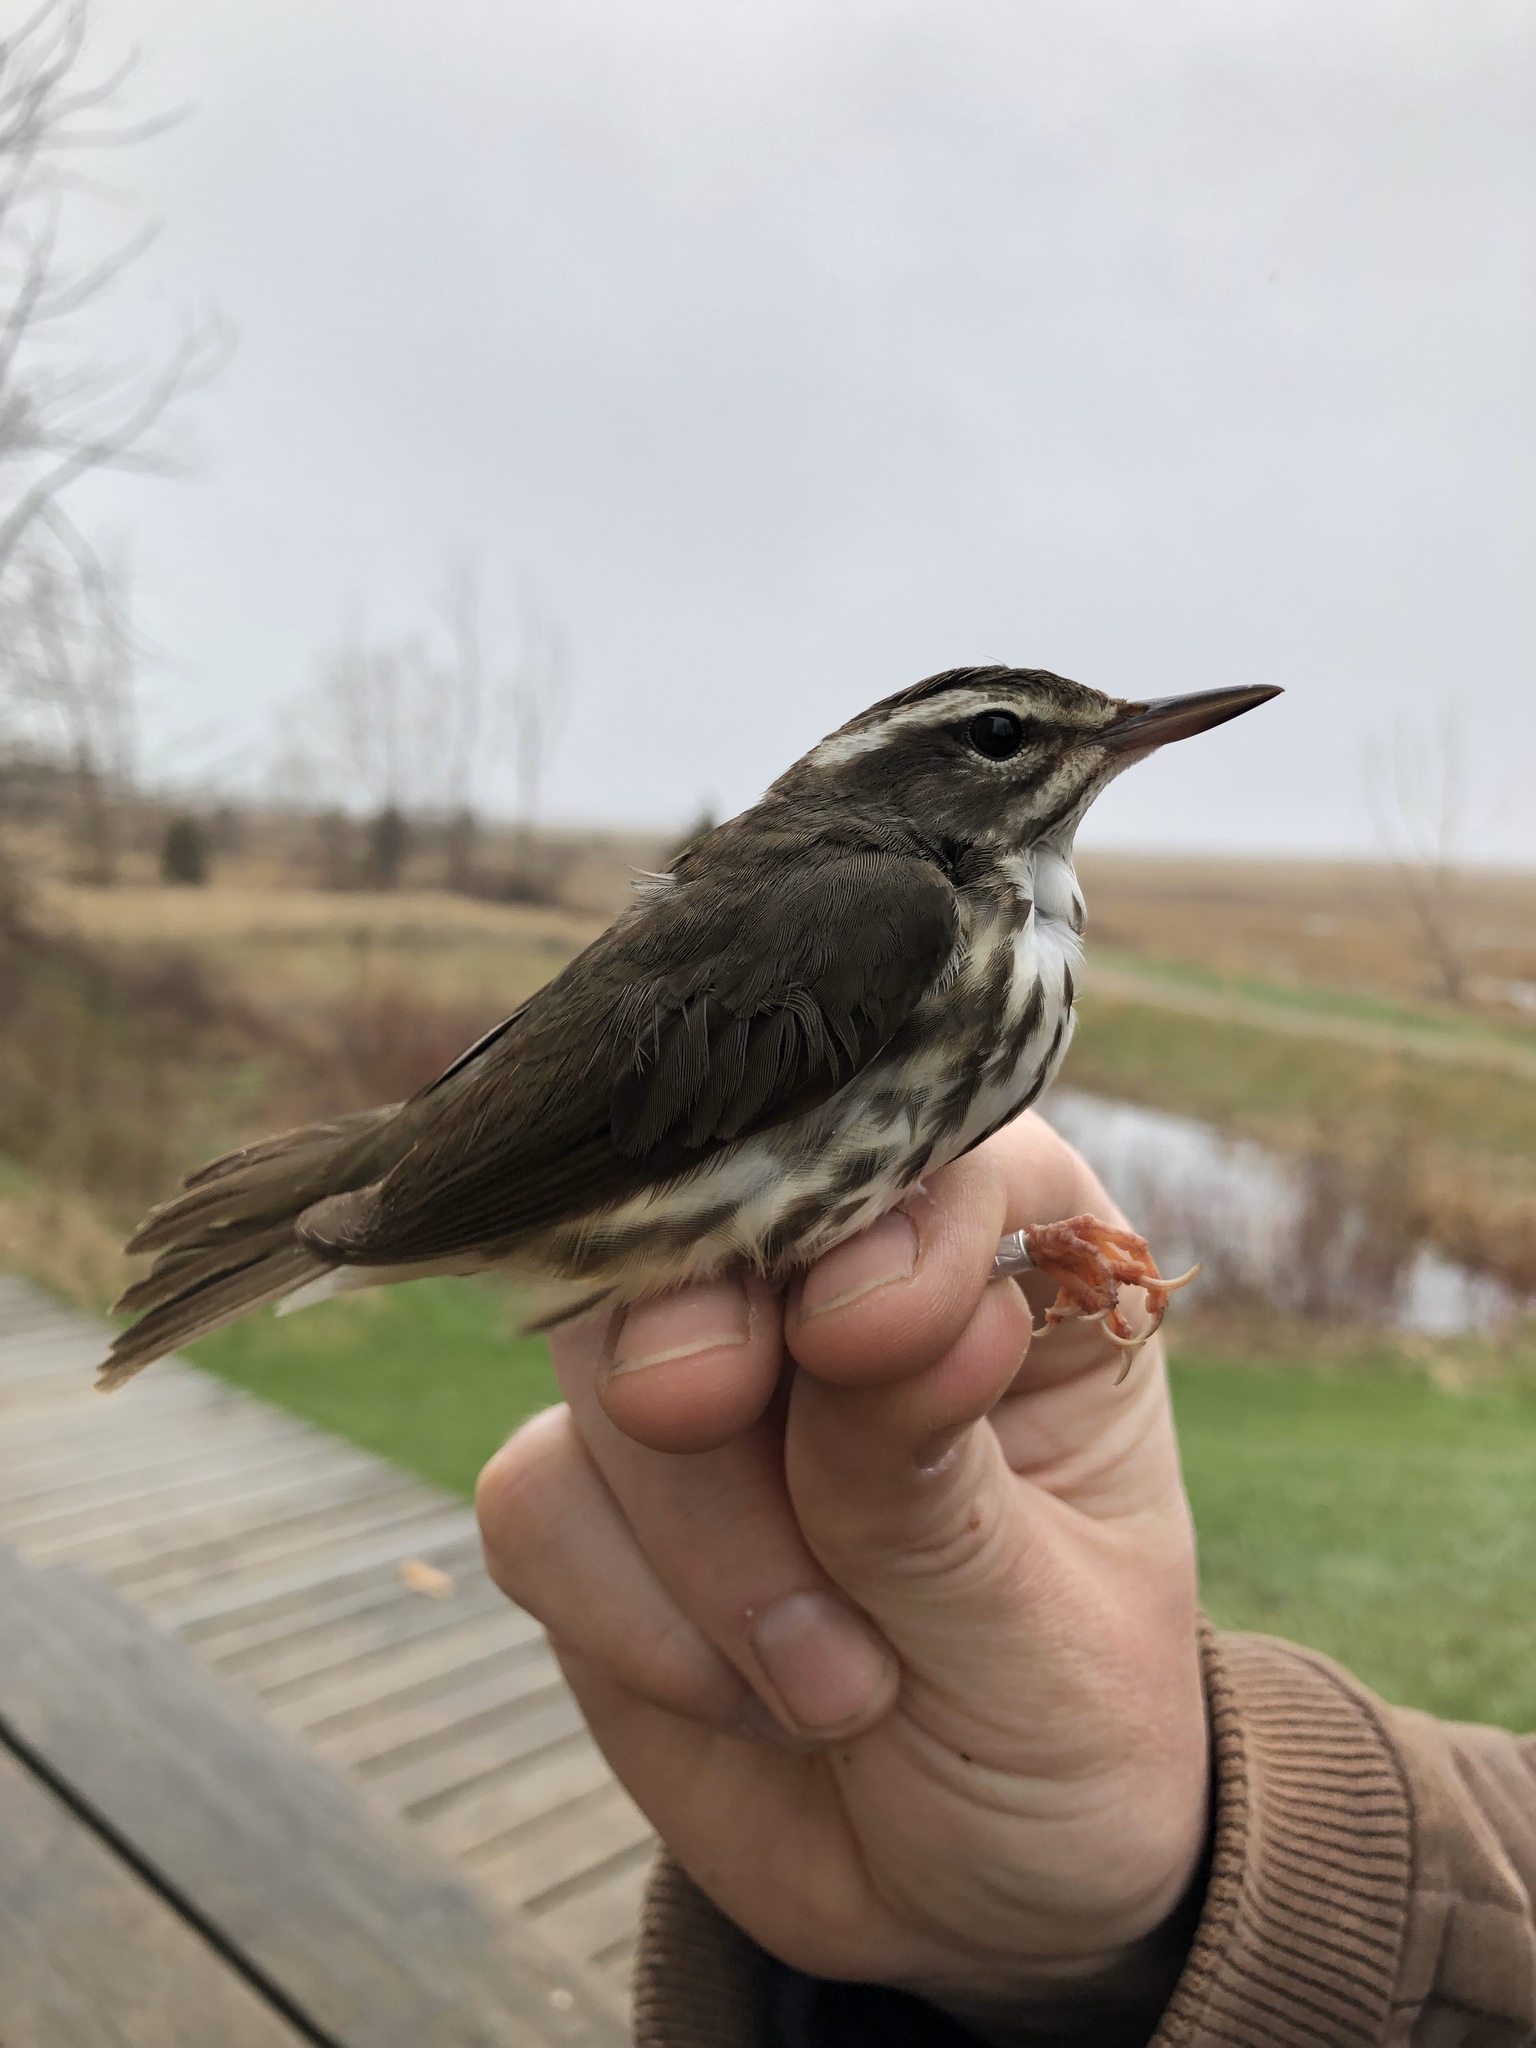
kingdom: Animalia
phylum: Chordata
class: Aves
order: Passeriformes
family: Parulidae
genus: Parkesia
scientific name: Parkesia motacilla
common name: Louisiana waterthrush
